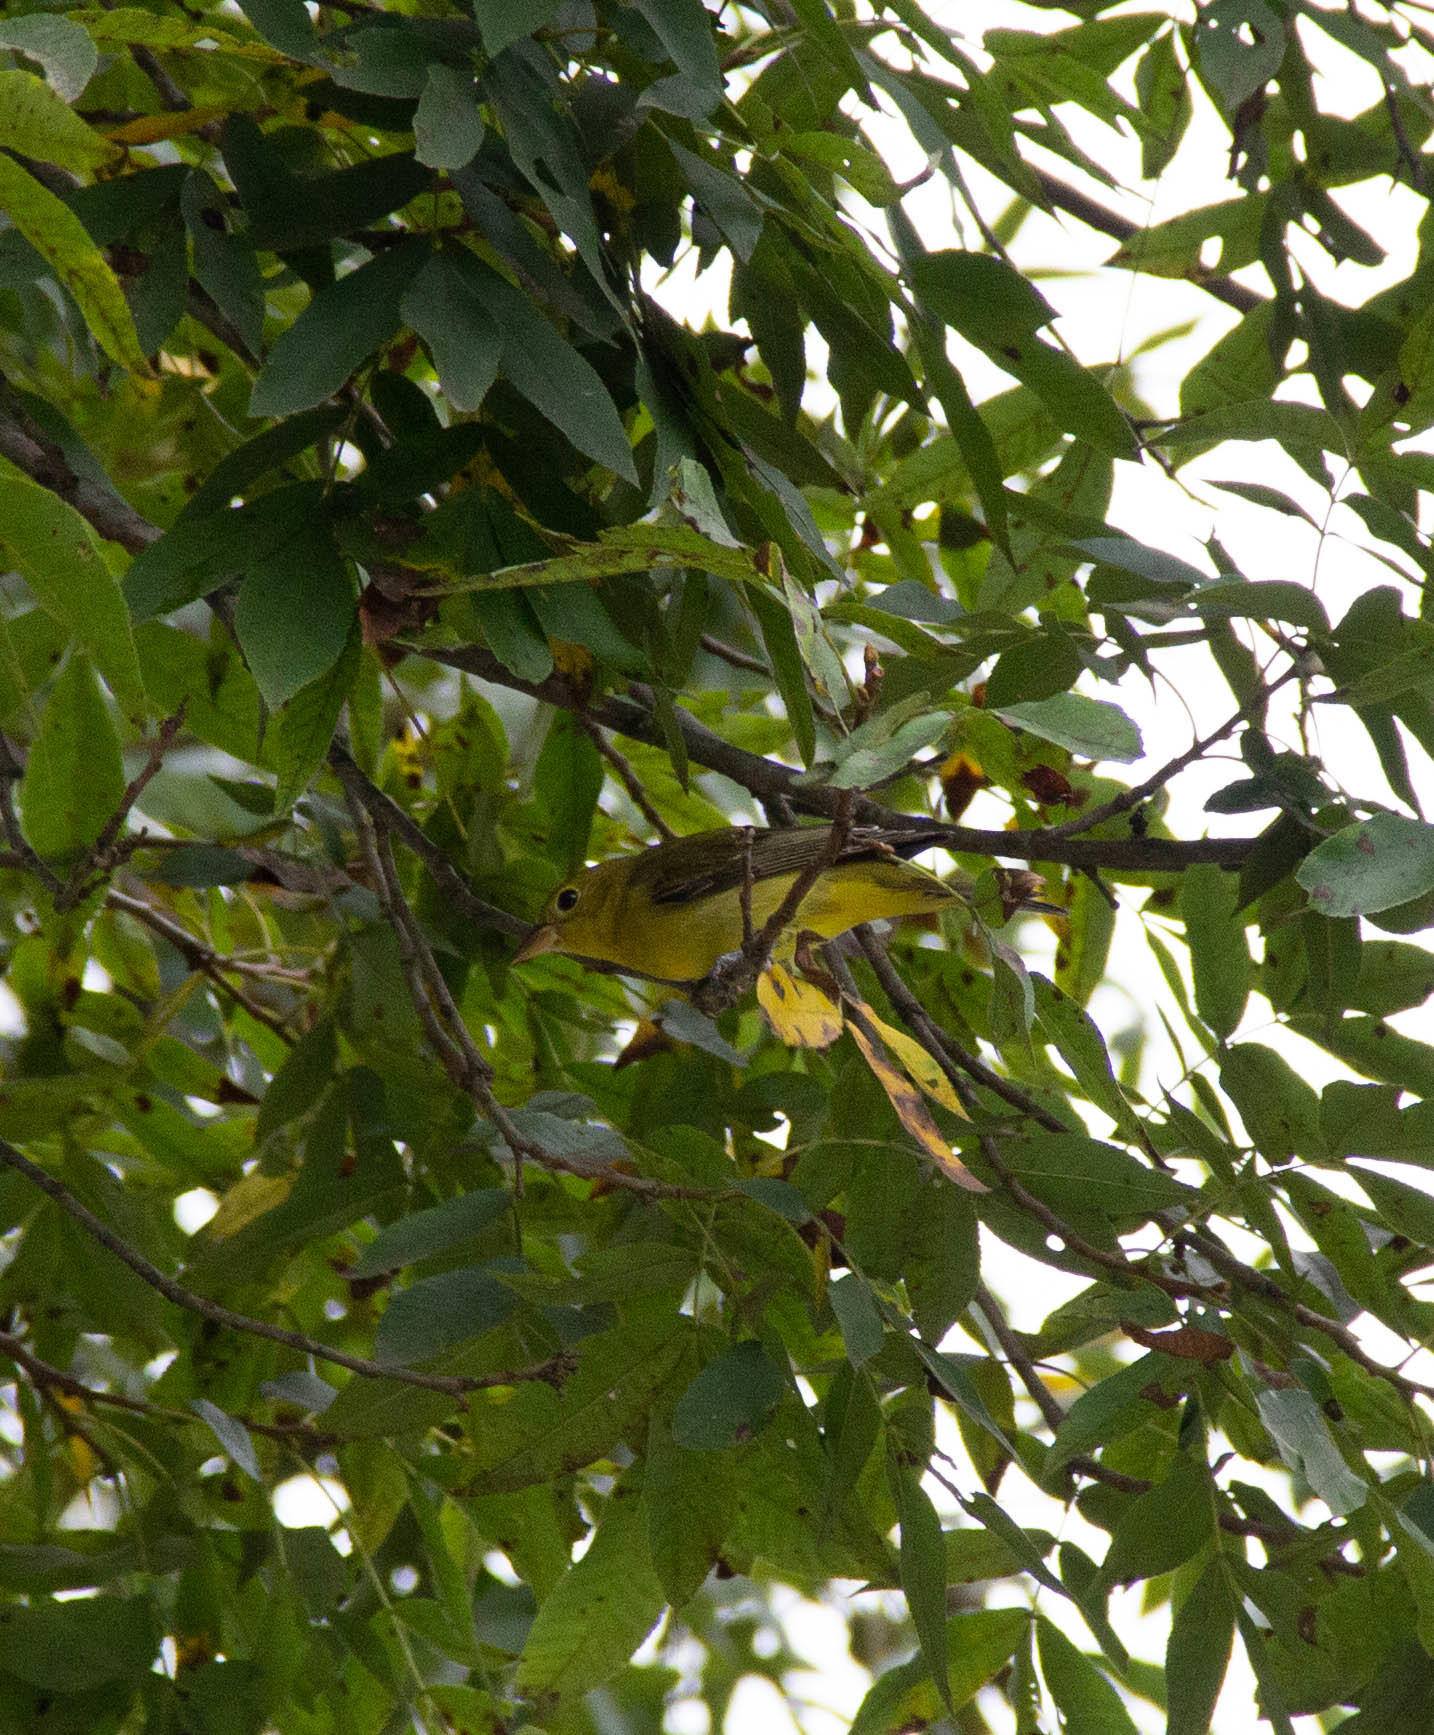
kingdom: Animalia
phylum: Chordata
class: Aves
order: Passeriformes
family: Cardinalidae
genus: Piranga
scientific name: Piranga olivacea
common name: Scarlet tanager
